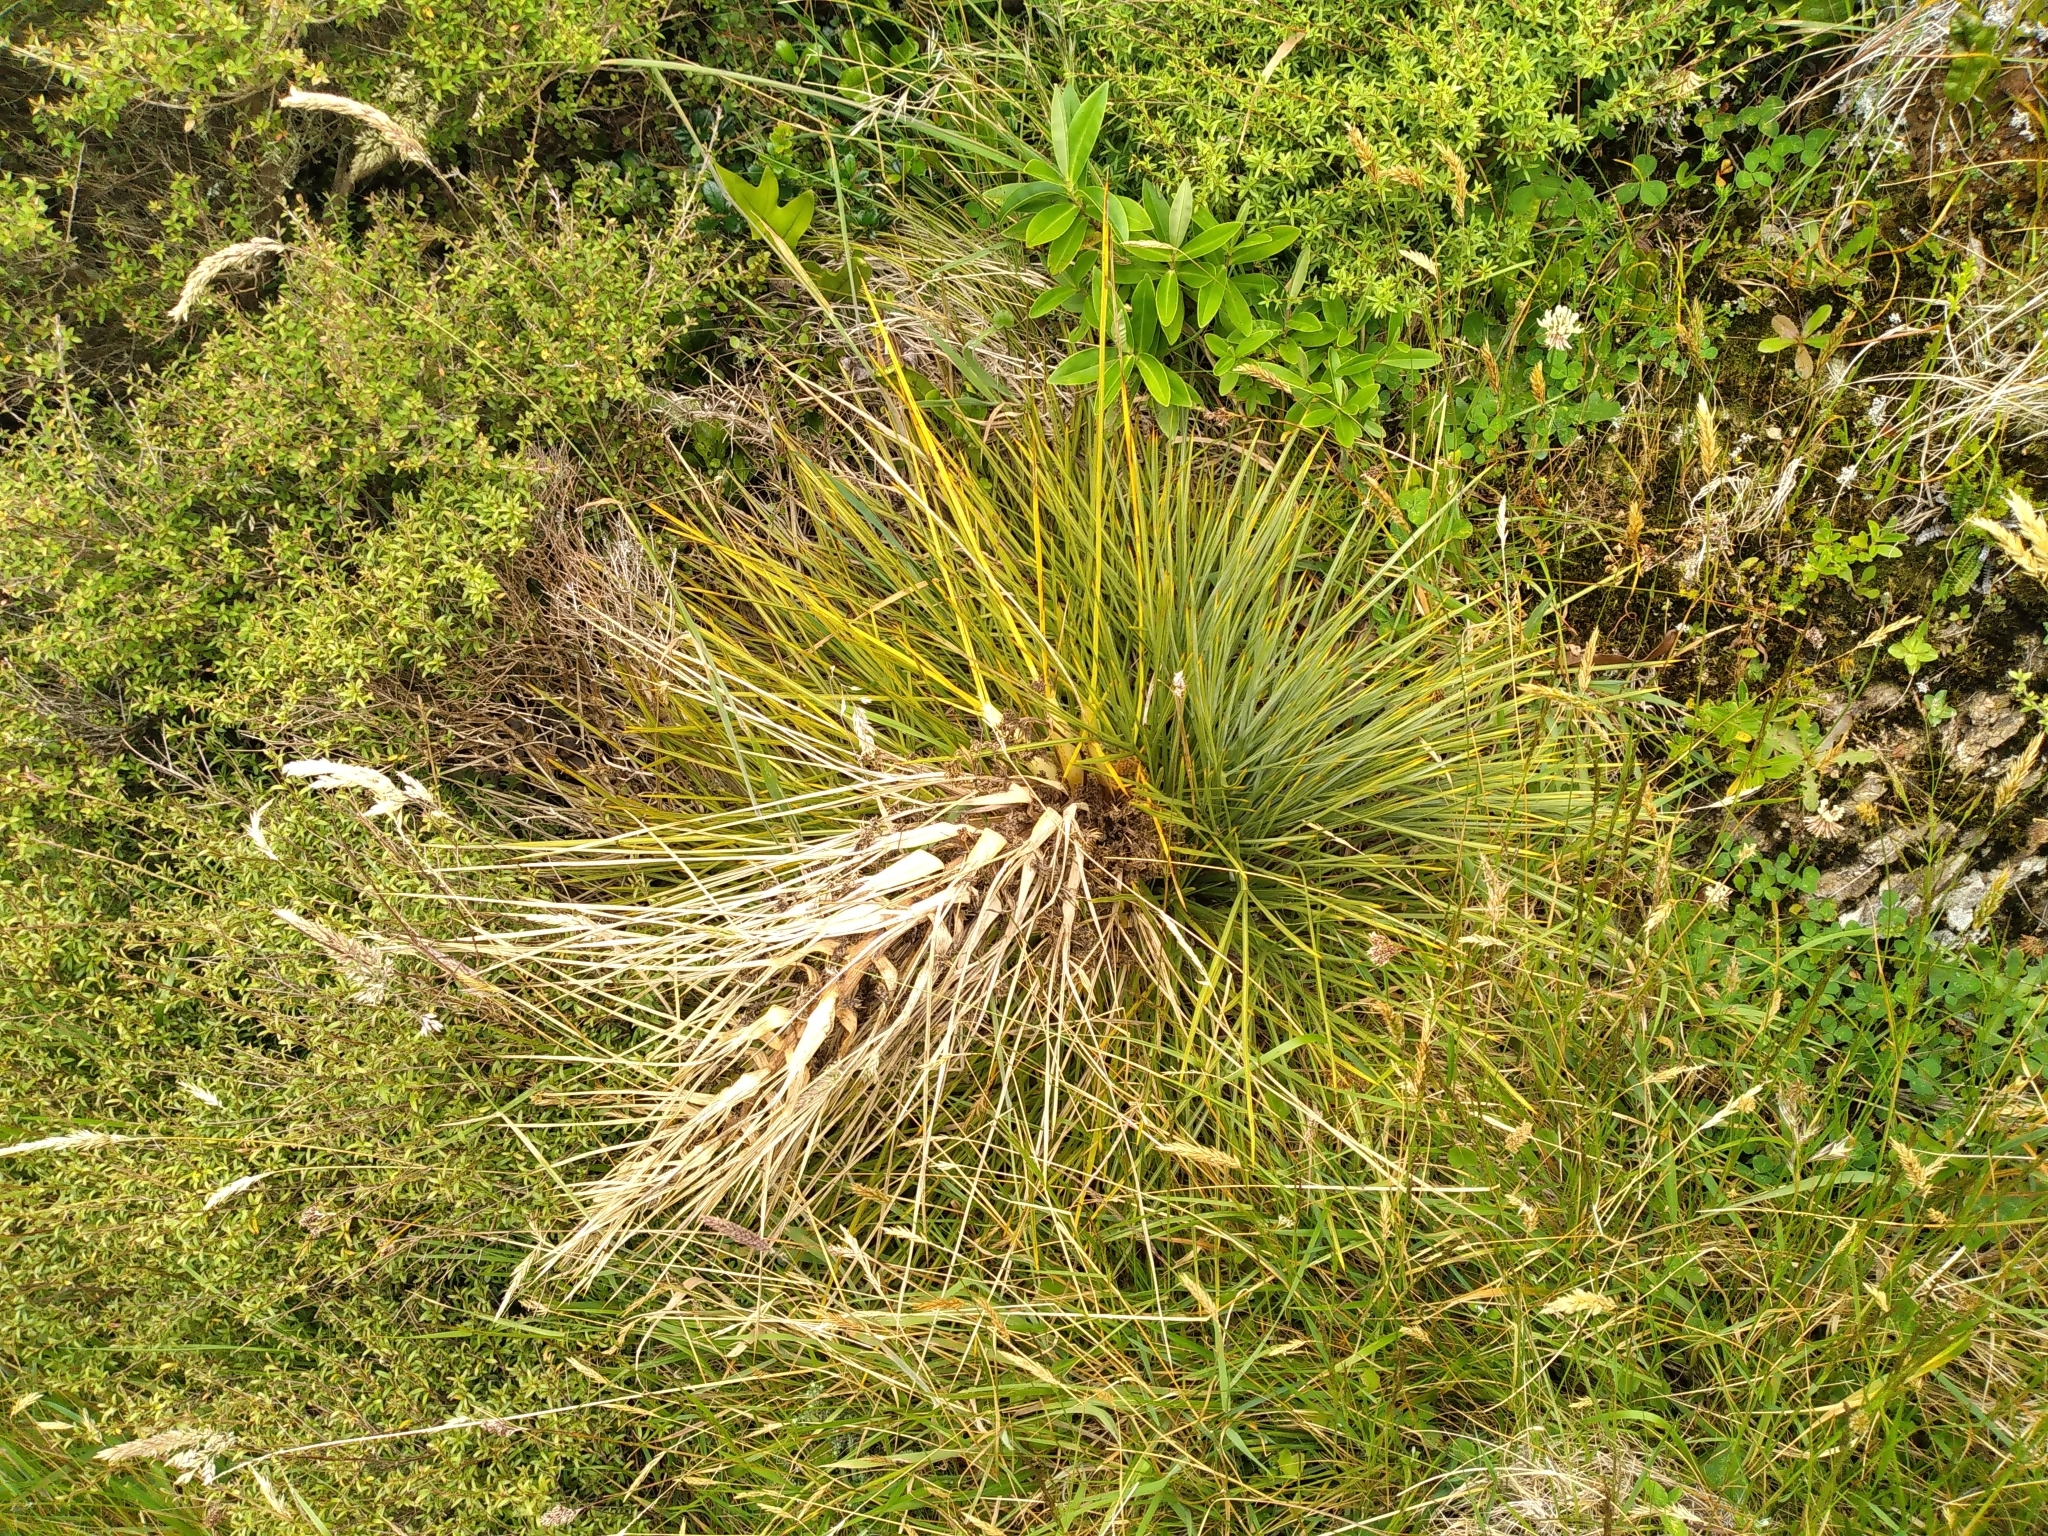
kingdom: Plantae
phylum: Tracheophyta
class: Magnoliopsida
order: Apiales
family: Apiaceae
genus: Aciphylla
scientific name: Aciphylla squarrosa
